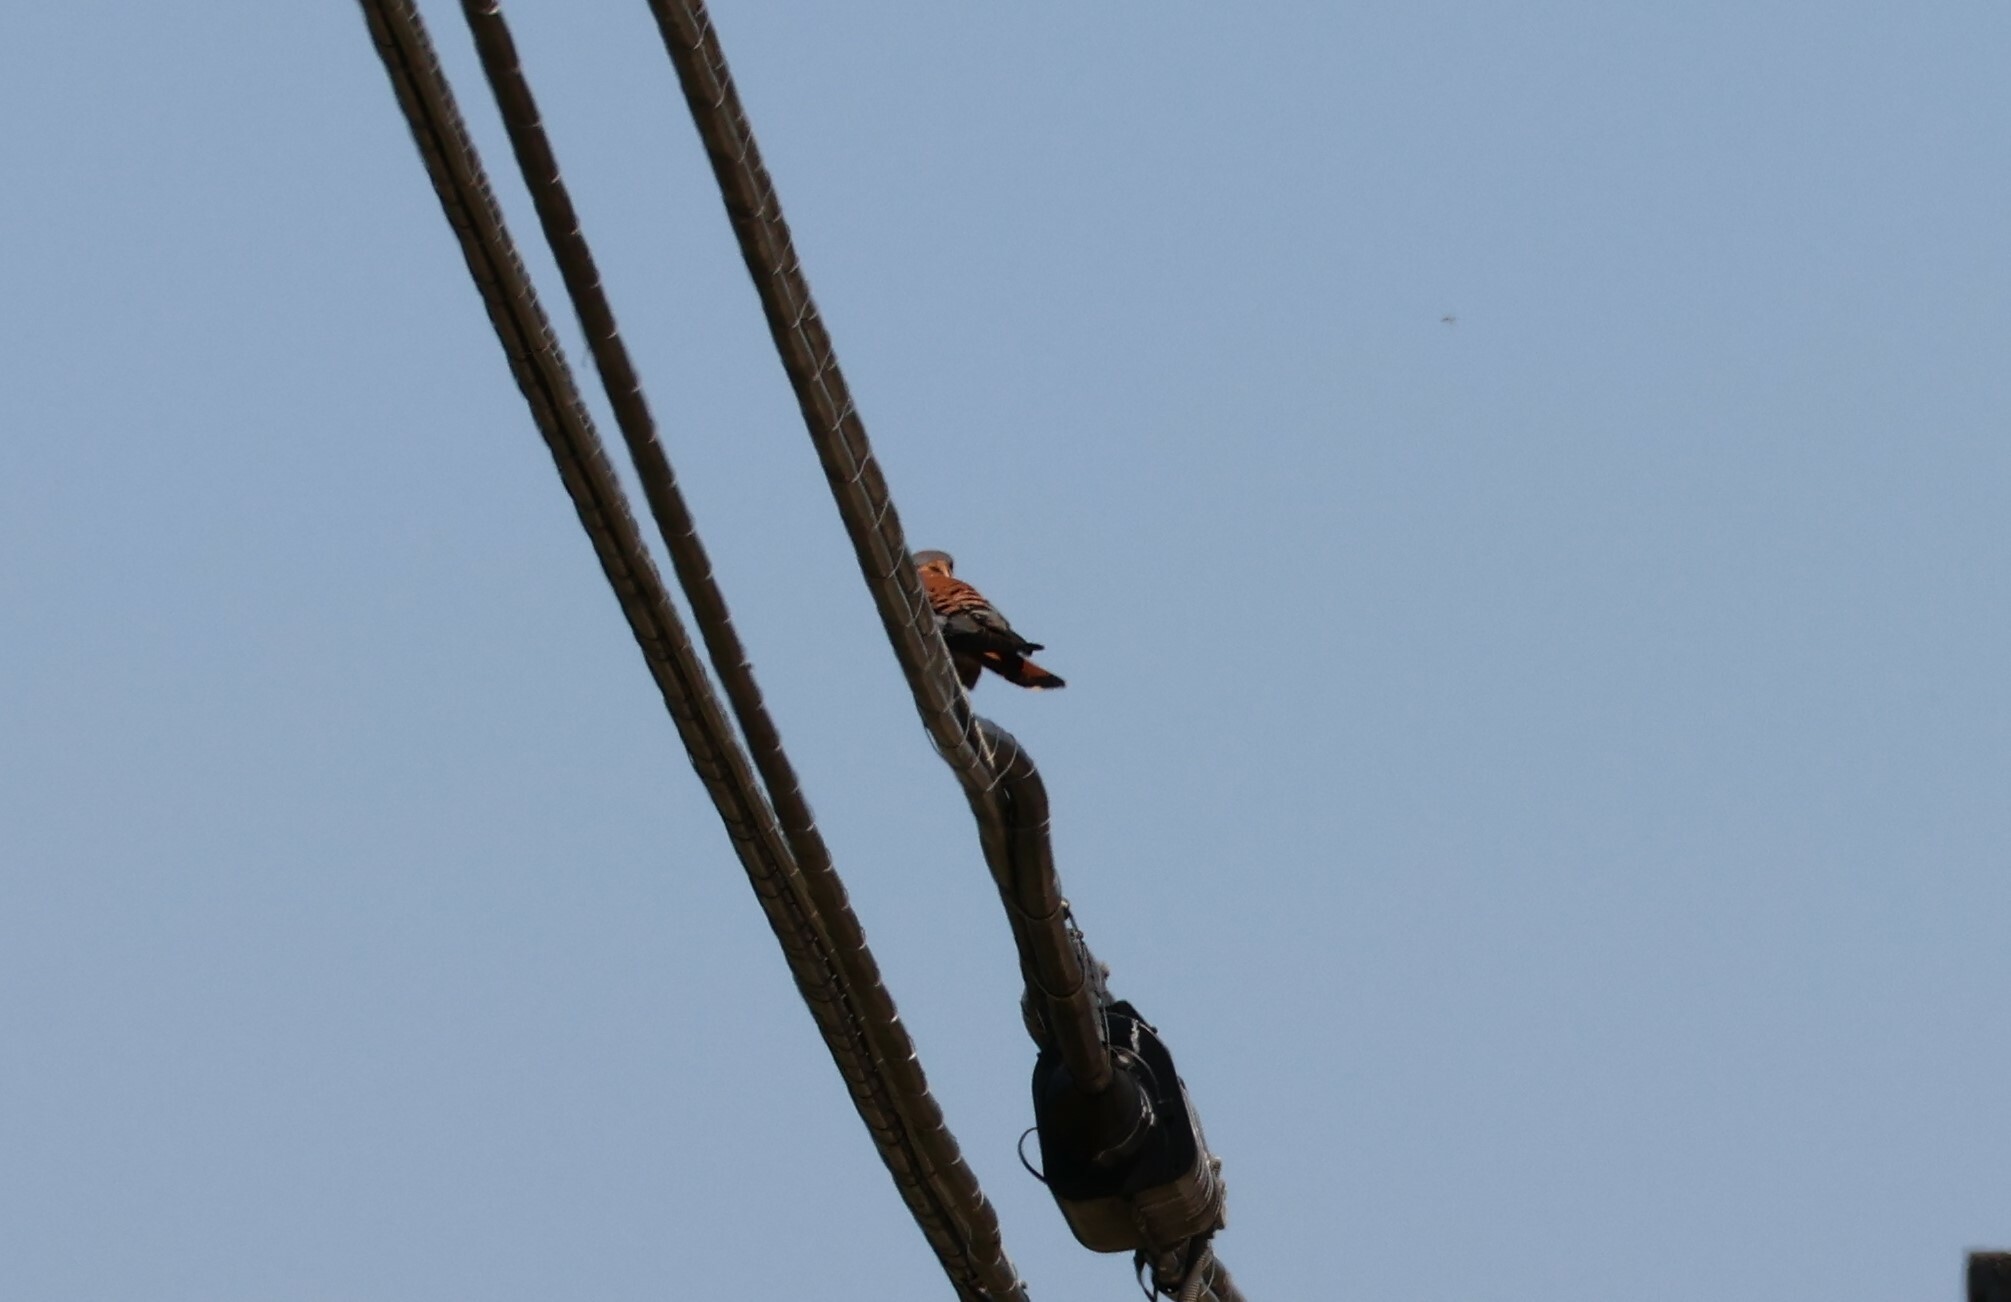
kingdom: Animalia
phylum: Chordata
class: Aves
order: Falconiformes
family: Falconidae
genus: Falco
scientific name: Falco sparverius
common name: American kestrel
